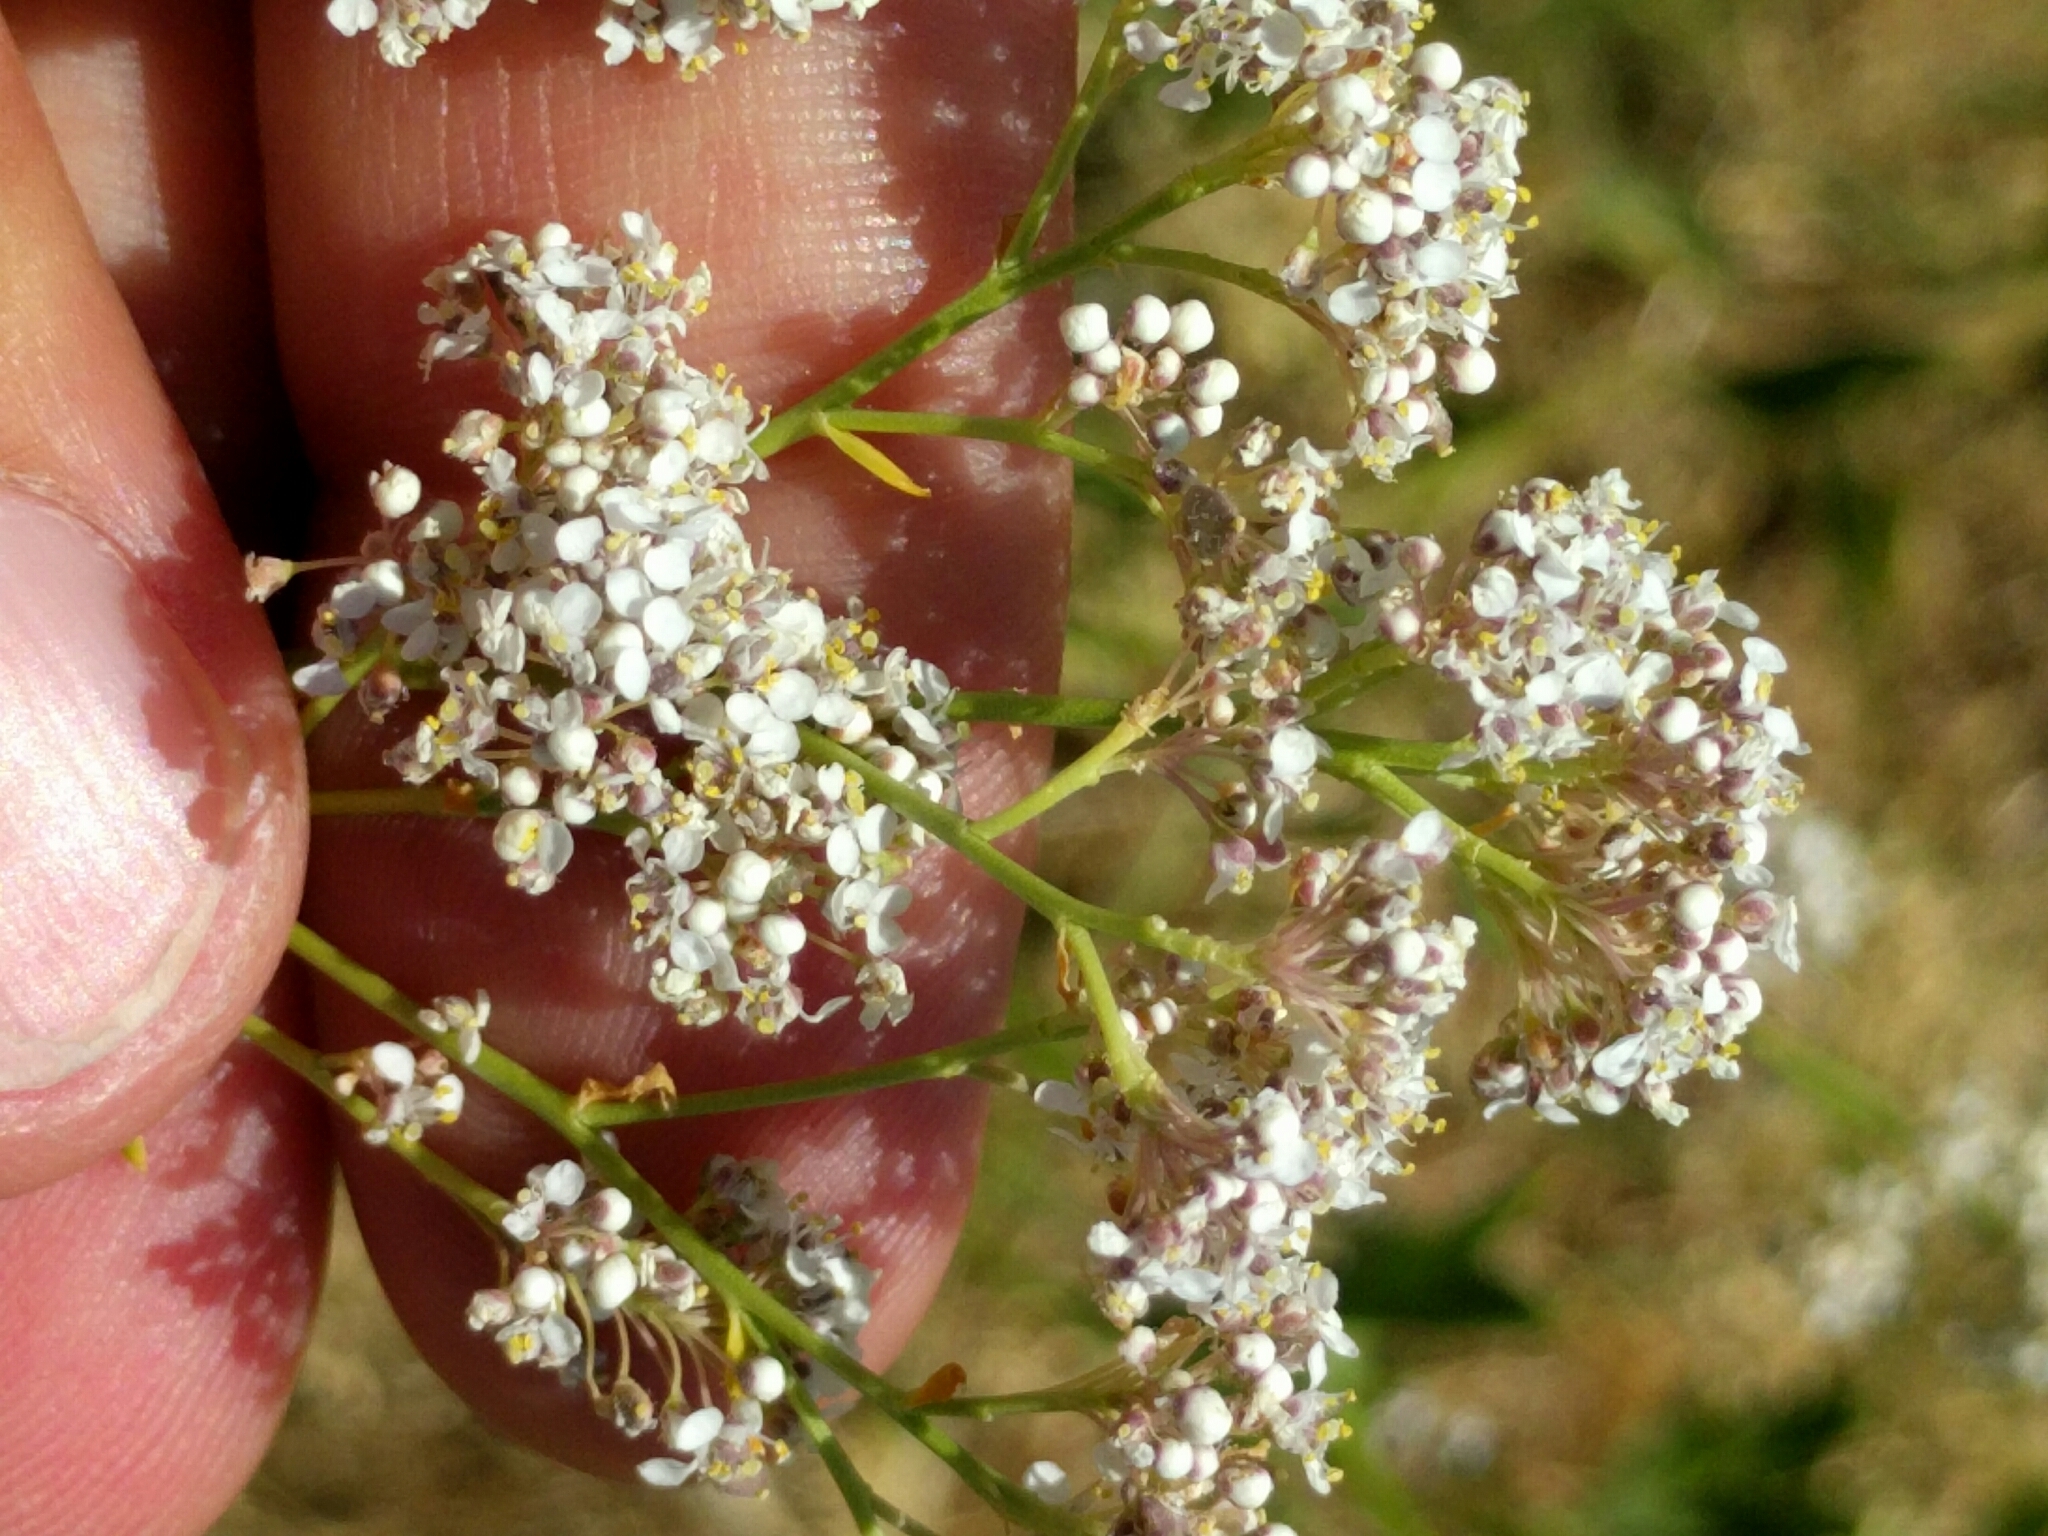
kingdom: Plantae
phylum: Tracheophyta
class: Magnoliopsida
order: Brassicales
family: Brassicaceae
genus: Lepidium
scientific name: Lepidium latifolium
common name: Dittander
